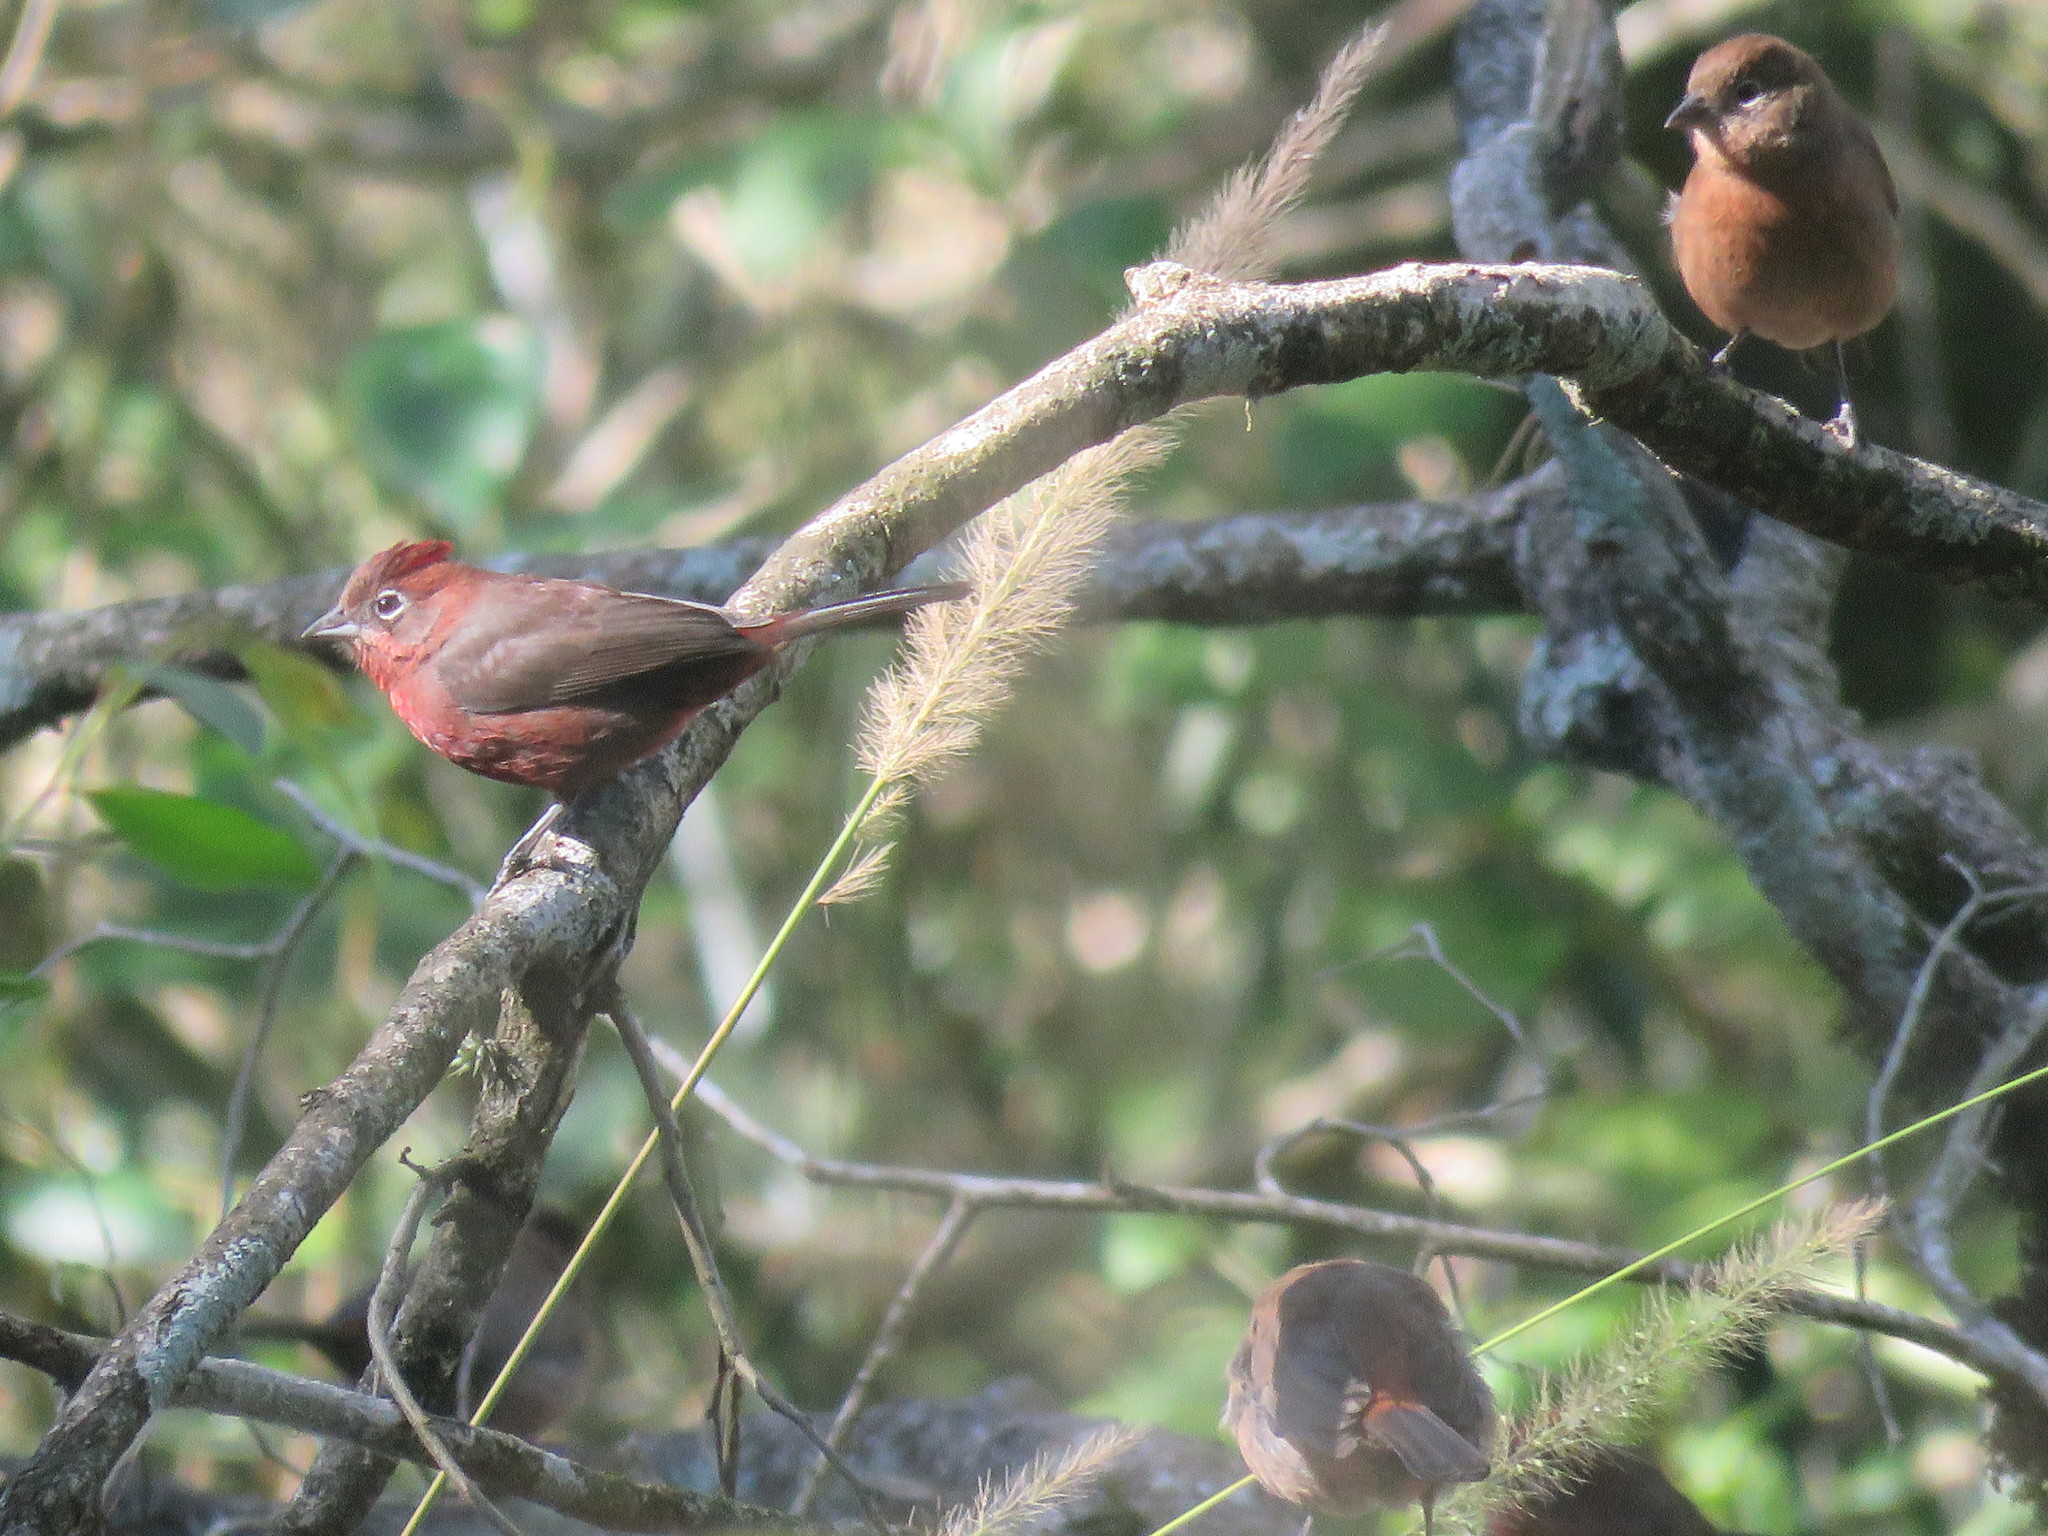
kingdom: Animalia
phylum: Chordata
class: Aves
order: Passeriformes
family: Thraupidae
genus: Coryphospingus
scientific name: Coryphospingus cucullatus
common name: Red pileated finch
